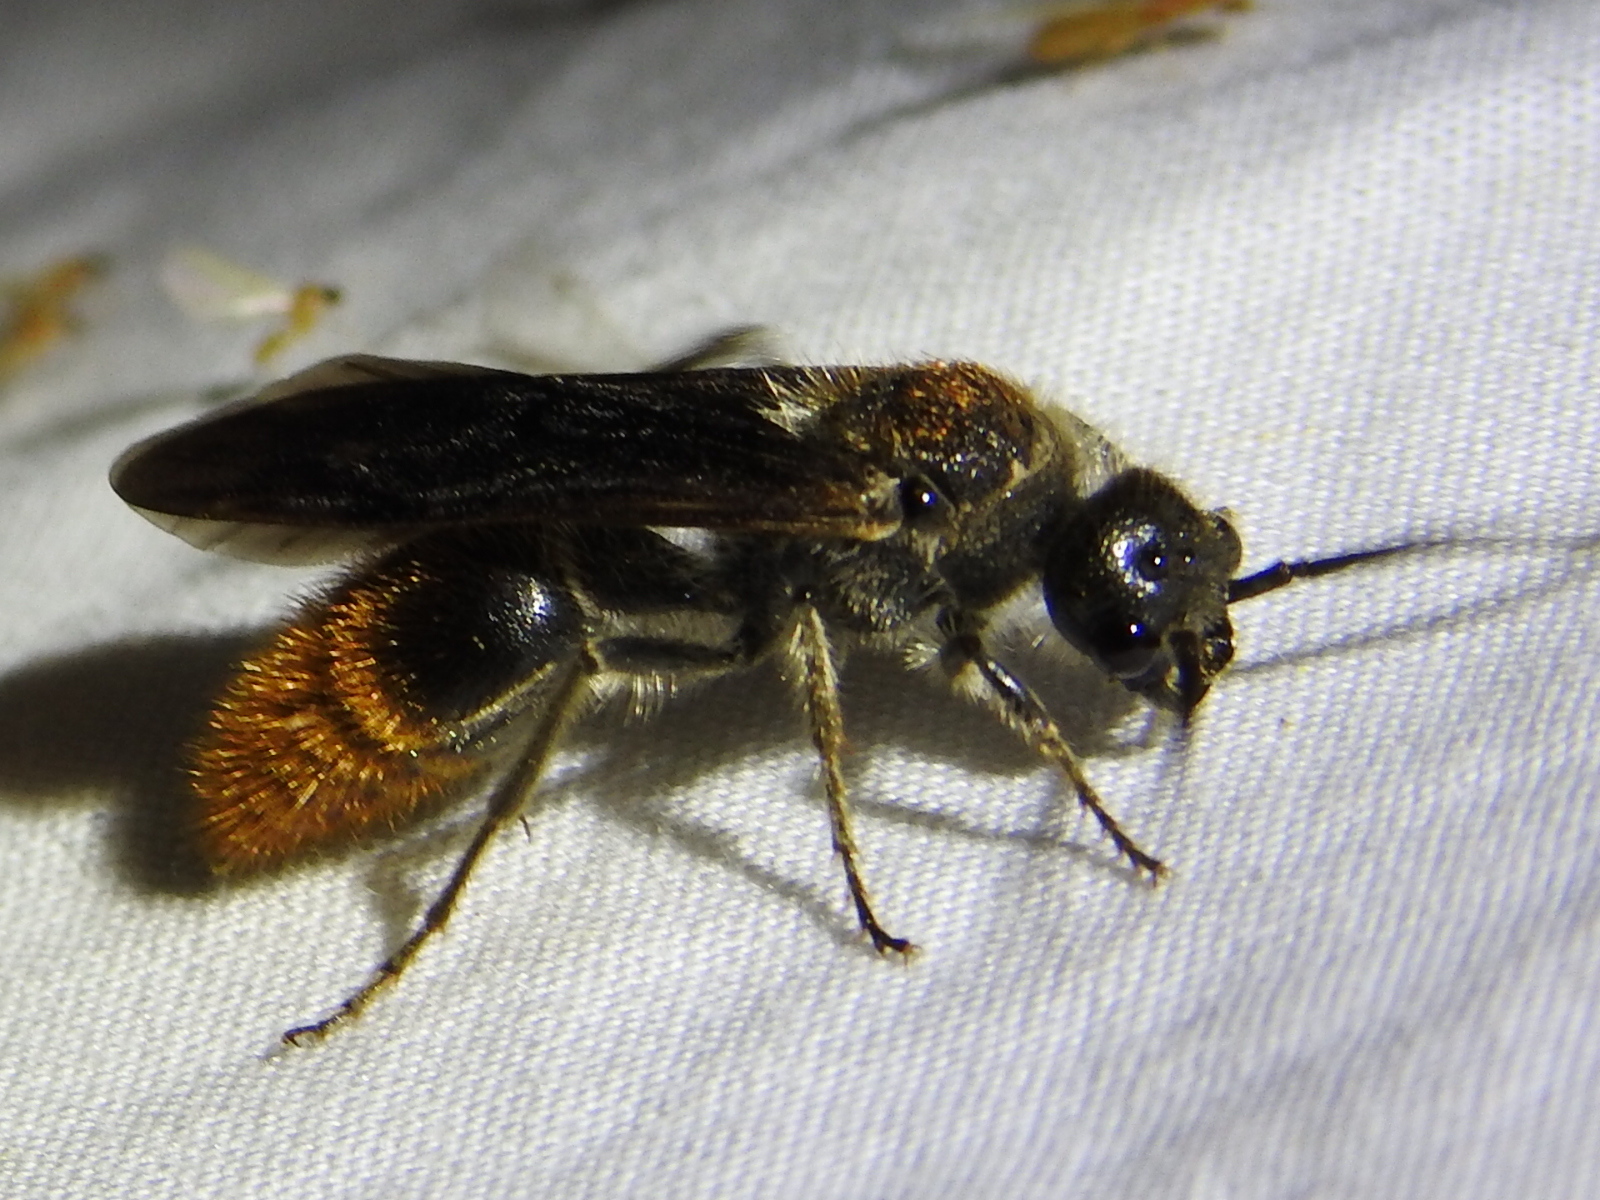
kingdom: Animalia
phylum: Arthropoda
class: Insecta
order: Hymenoptera
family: Mutillidae
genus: Sphaeropthalma
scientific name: Sphaeropthalma marpesia
